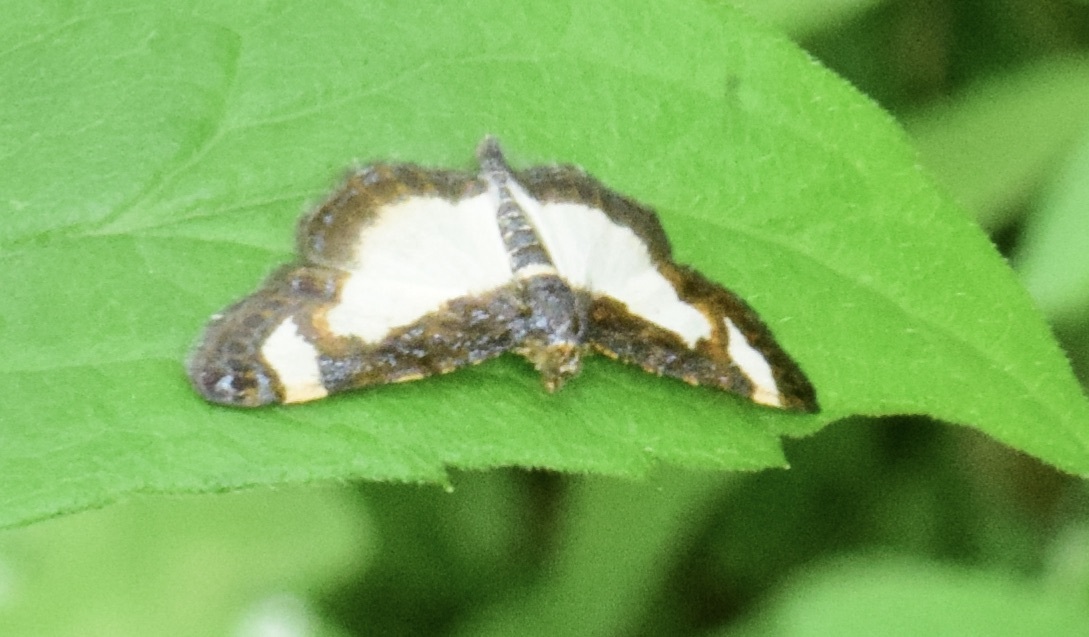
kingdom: Animalia
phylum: Arthropoda
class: Insecta
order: Lepidoptera
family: Geometridae
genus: Heliomata
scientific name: Heliomata cycladata
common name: Common spring moth
